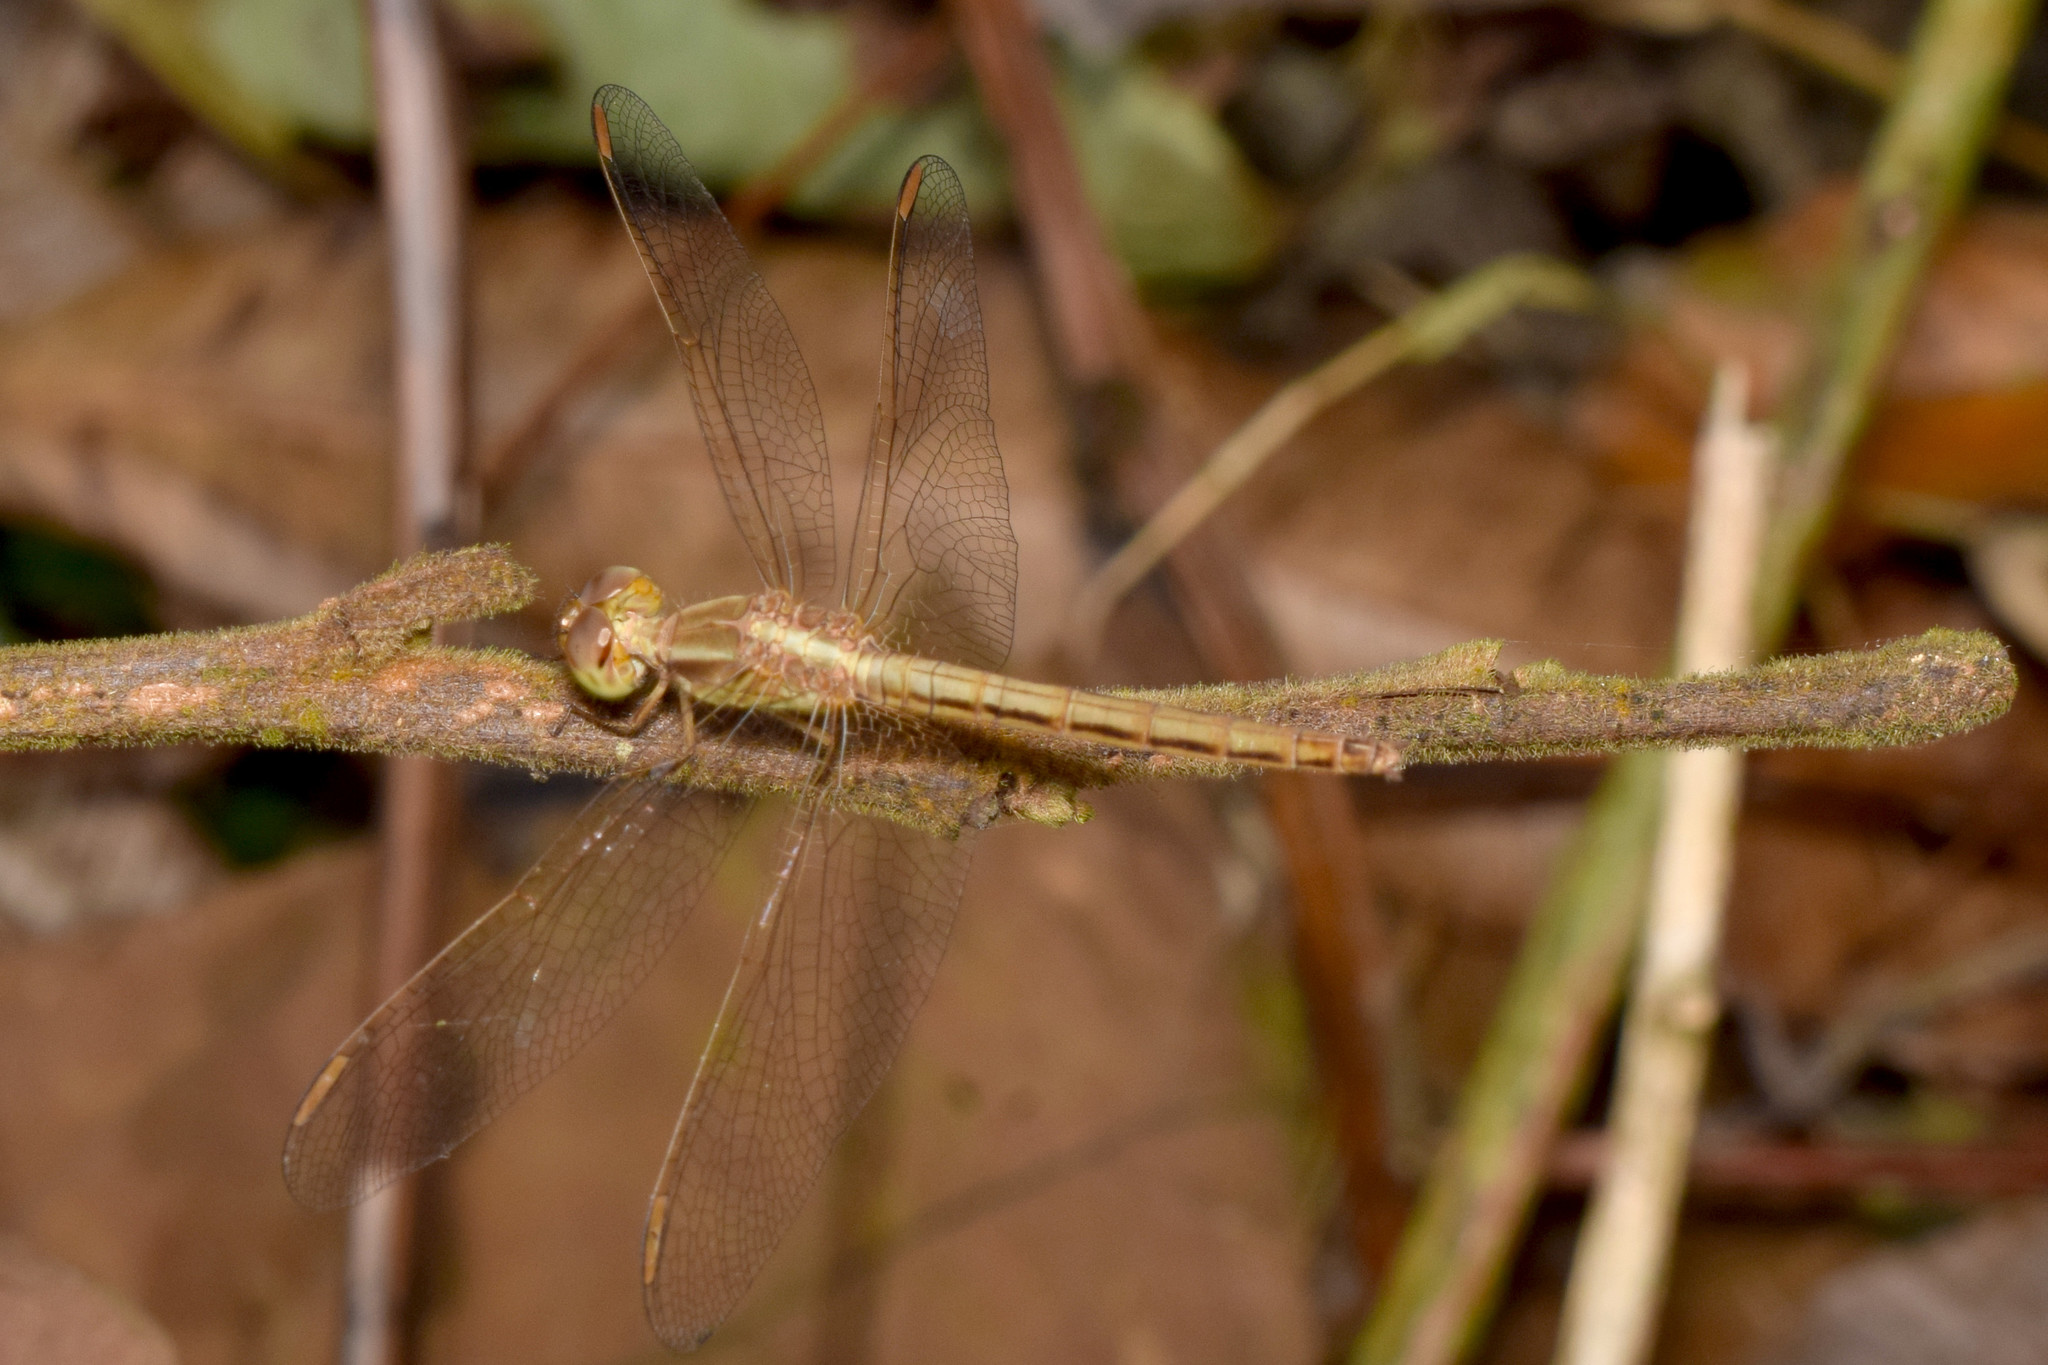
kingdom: Animalia
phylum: Arthropoda
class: Insecta
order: Odonata
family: Libellulidae
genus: Neurothemis
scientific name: Neurothemis intermedia
